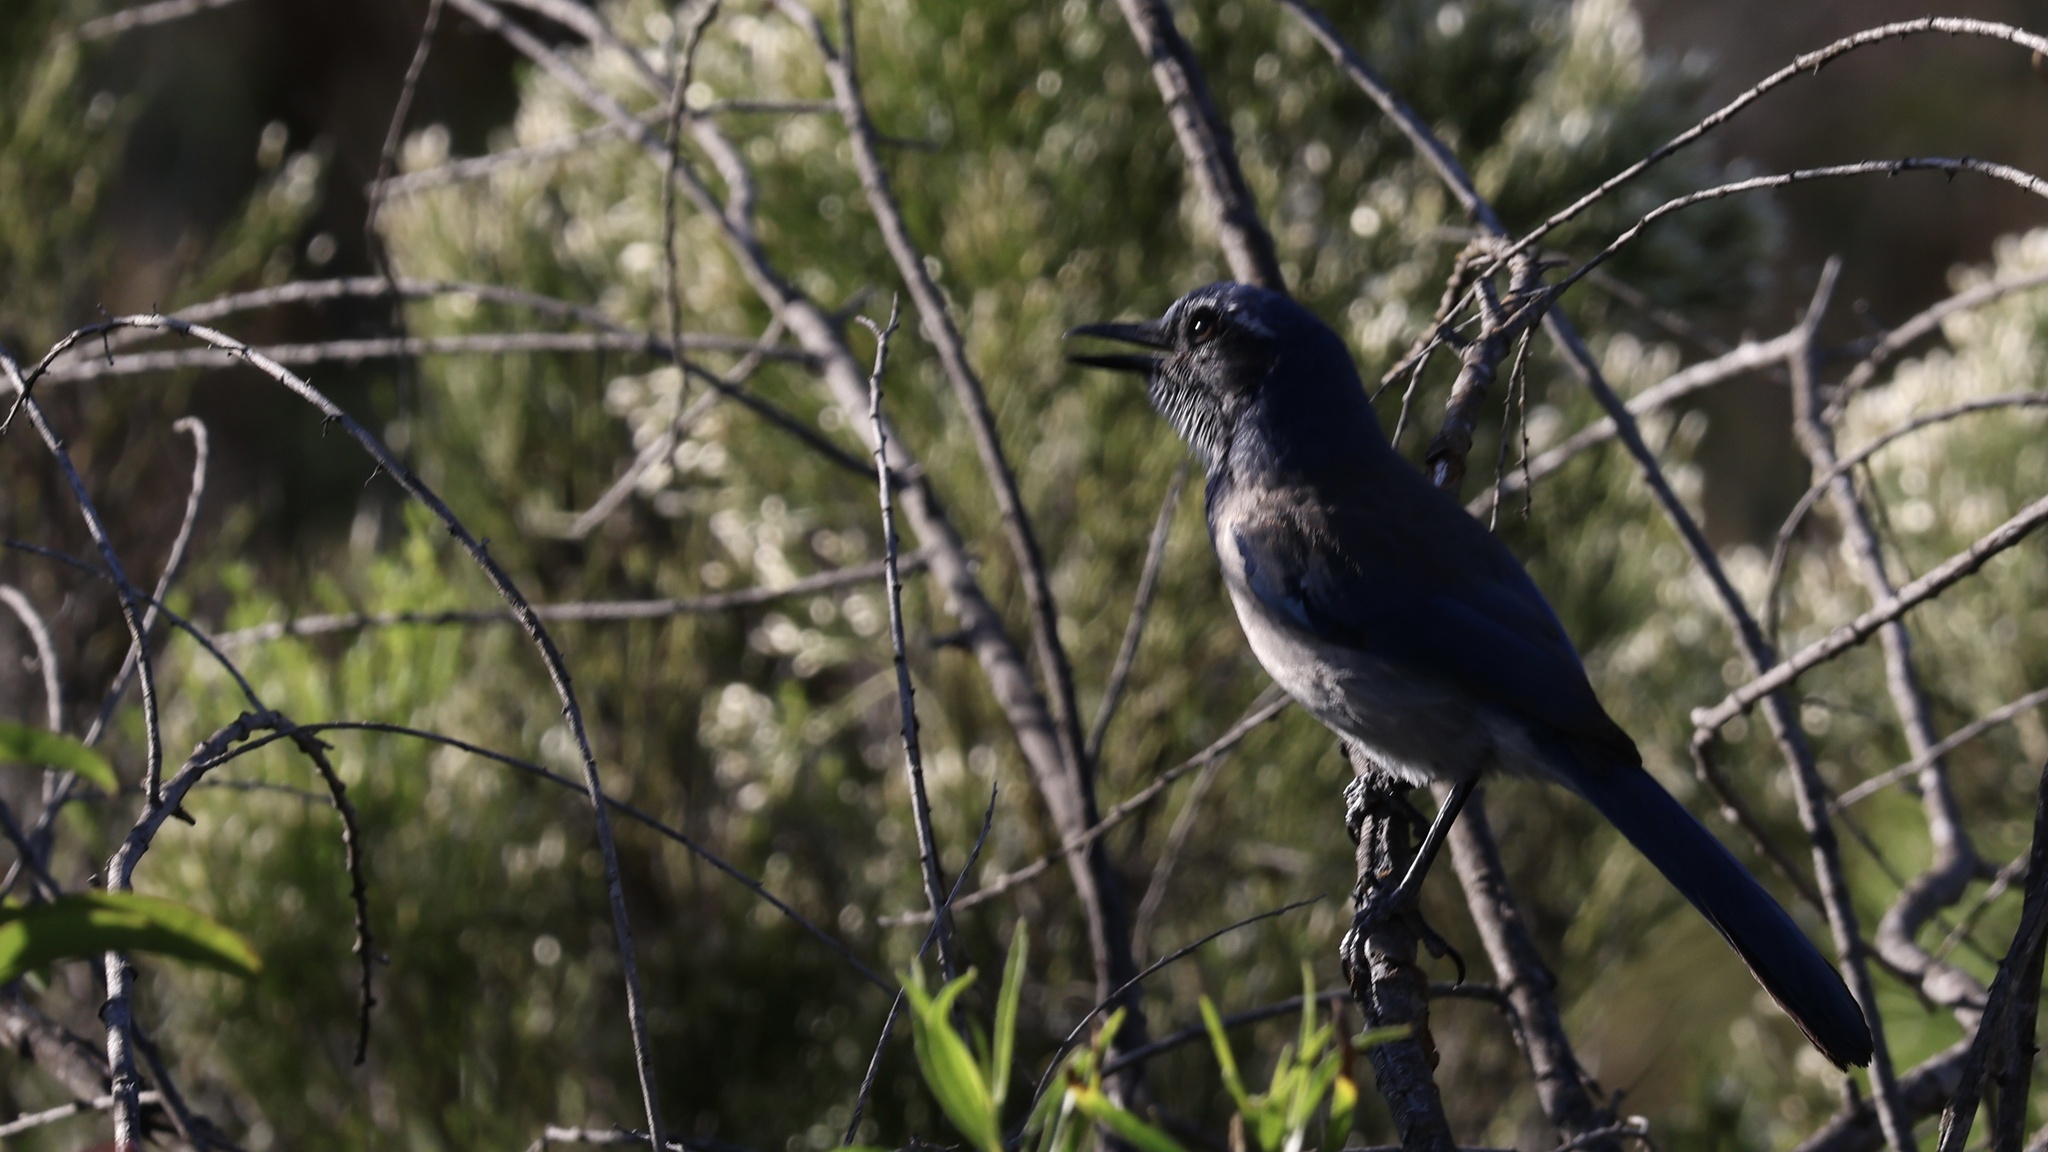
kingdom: Animalia
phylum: Chordata
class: Aves
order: Passeriformes
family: Corvidae
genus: Aphelocoma
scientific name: Aphelocoma californica
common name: California scrub-jay
